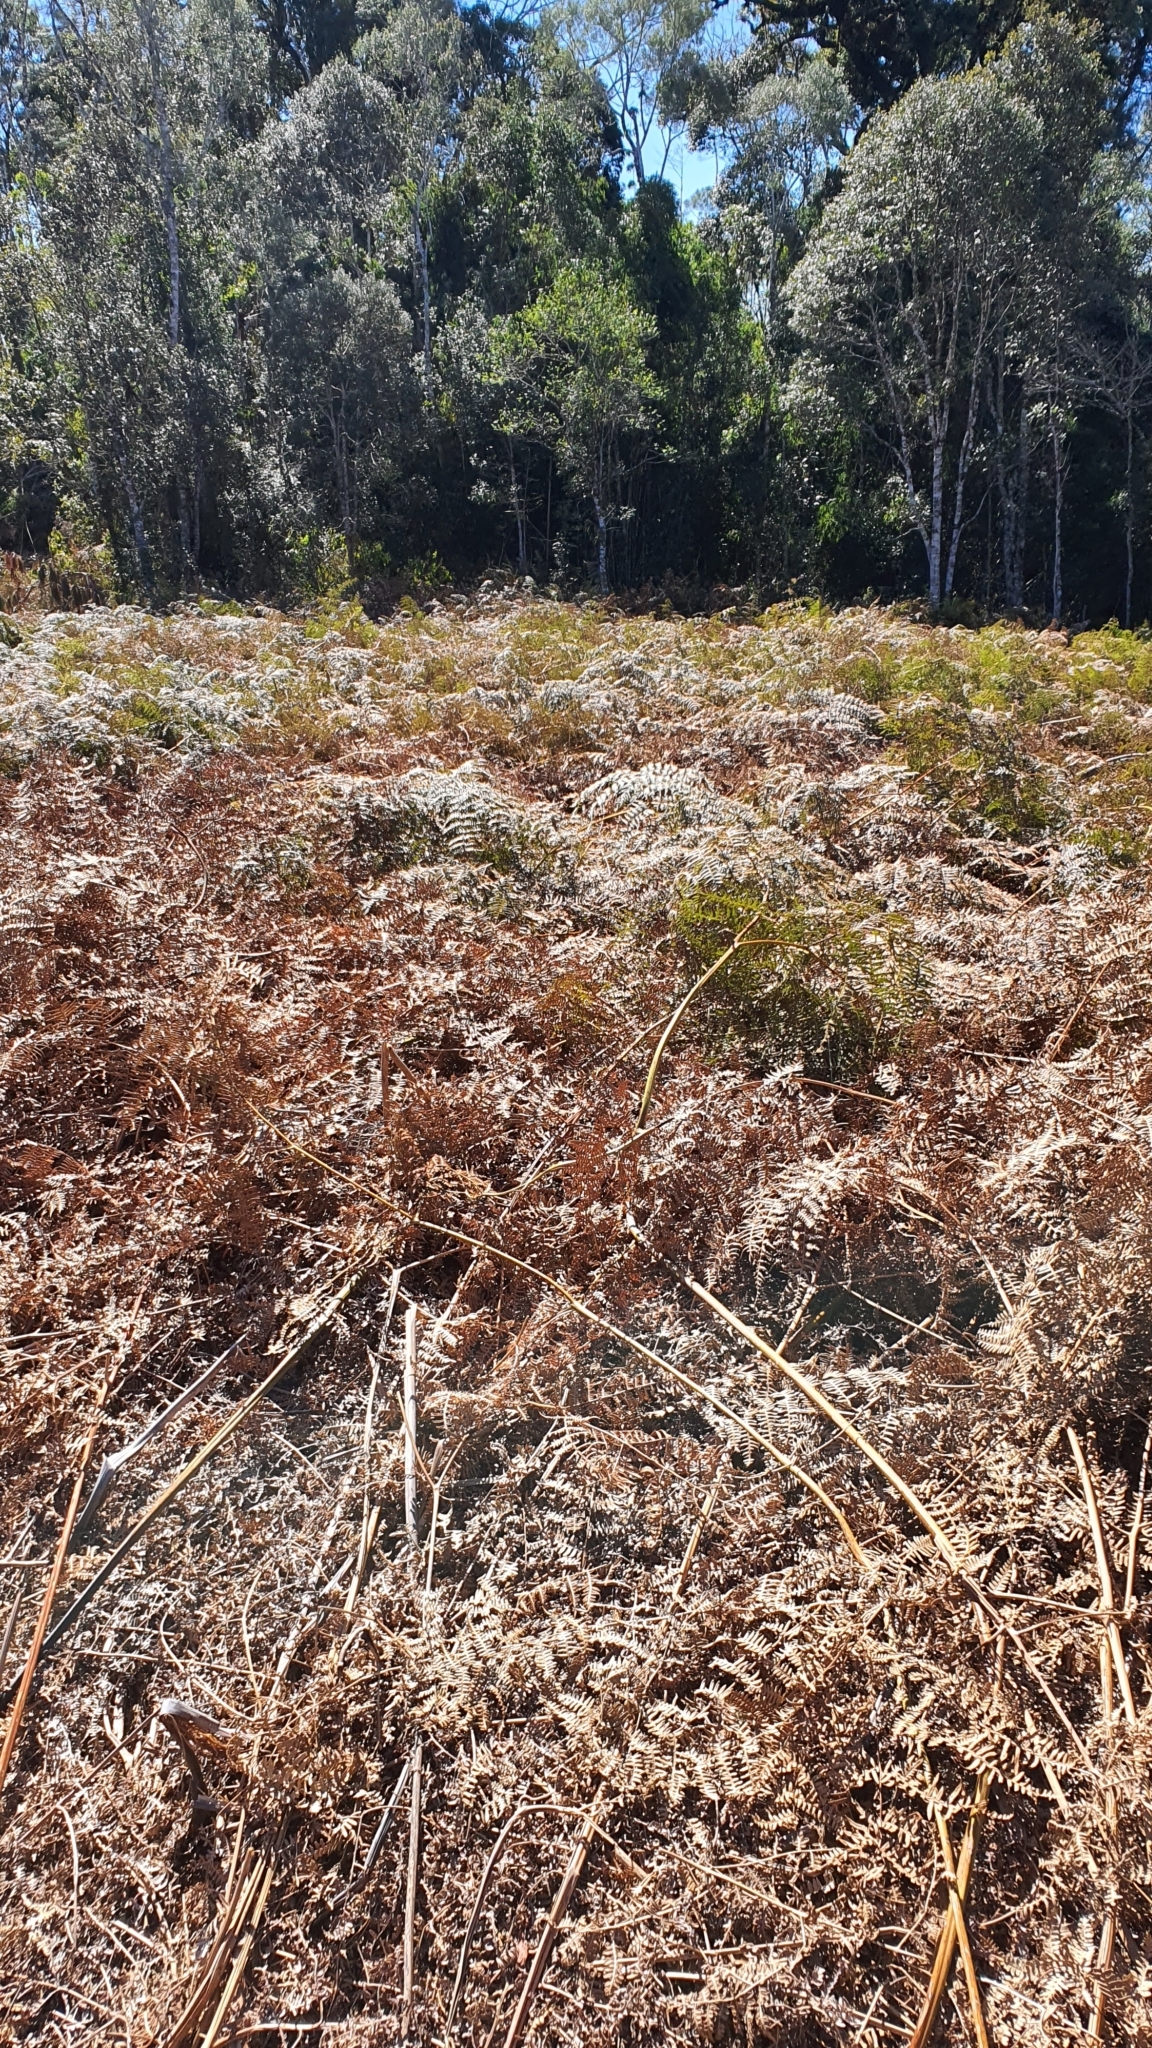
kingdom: Plantae
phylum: Tracheophyta
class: Polypodiopsida
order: Polypodiales
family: Dennstaedtiaceae
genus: Pteridium
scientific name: Pteridium esculentum
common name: Bracken fern
